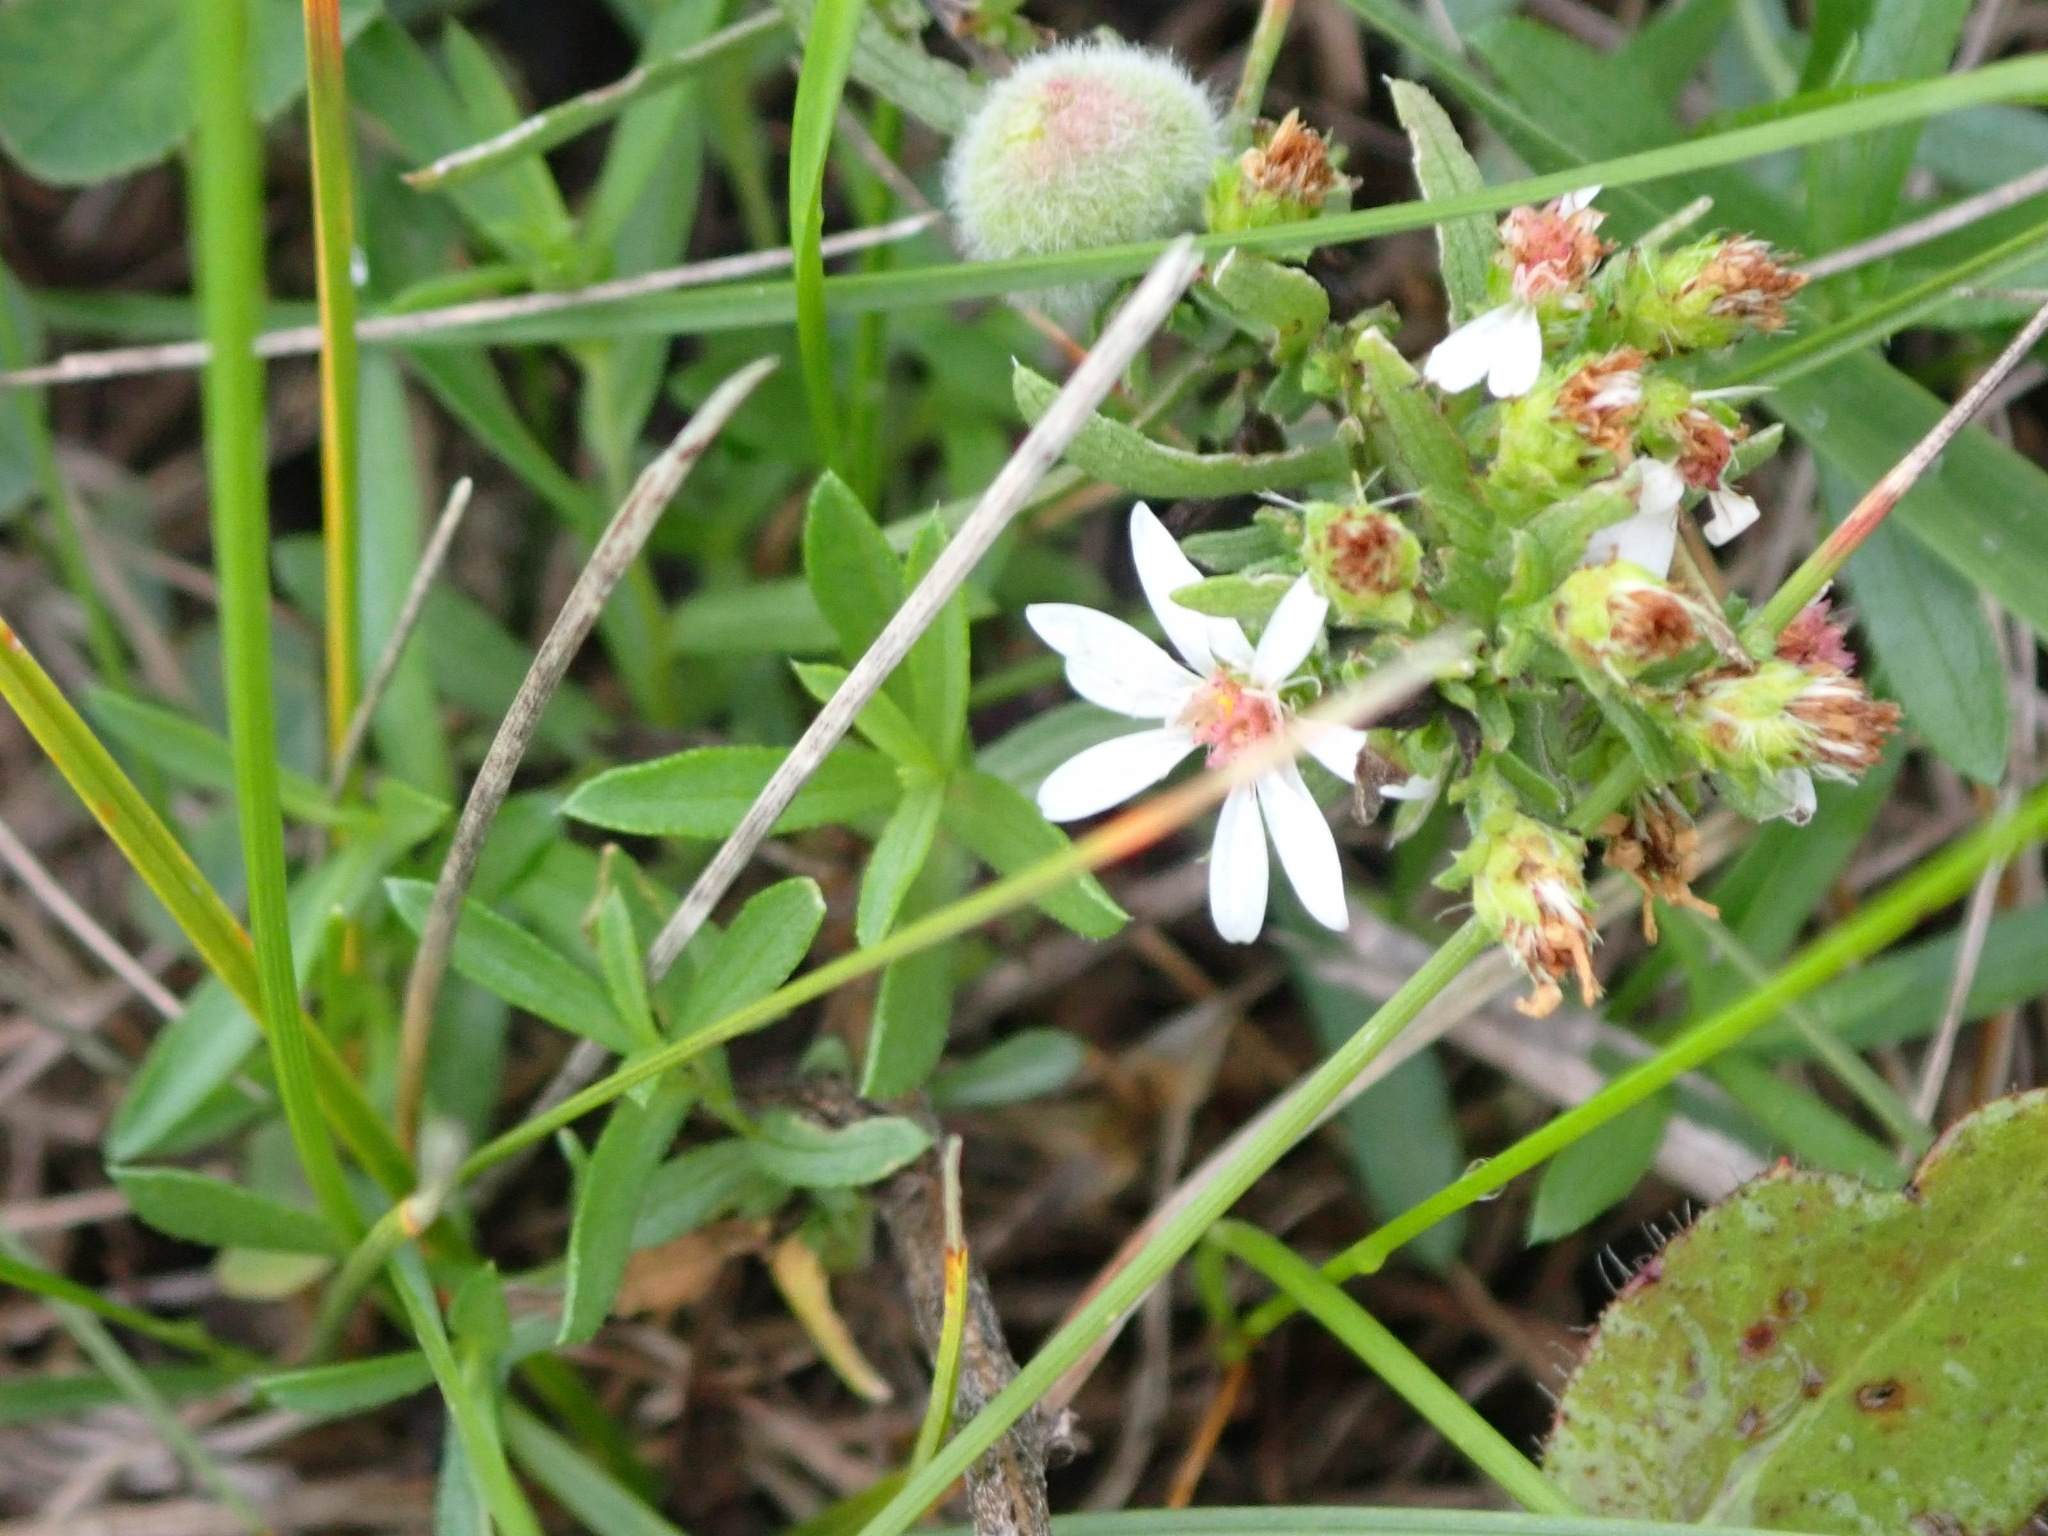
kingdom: Plantae
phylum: Tracheophyta
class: Magnoliopsida
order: Asterales
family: Asteraceae
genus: Symphyotrichum
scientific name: Symphyotrichum ericoides
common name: Heath aster
